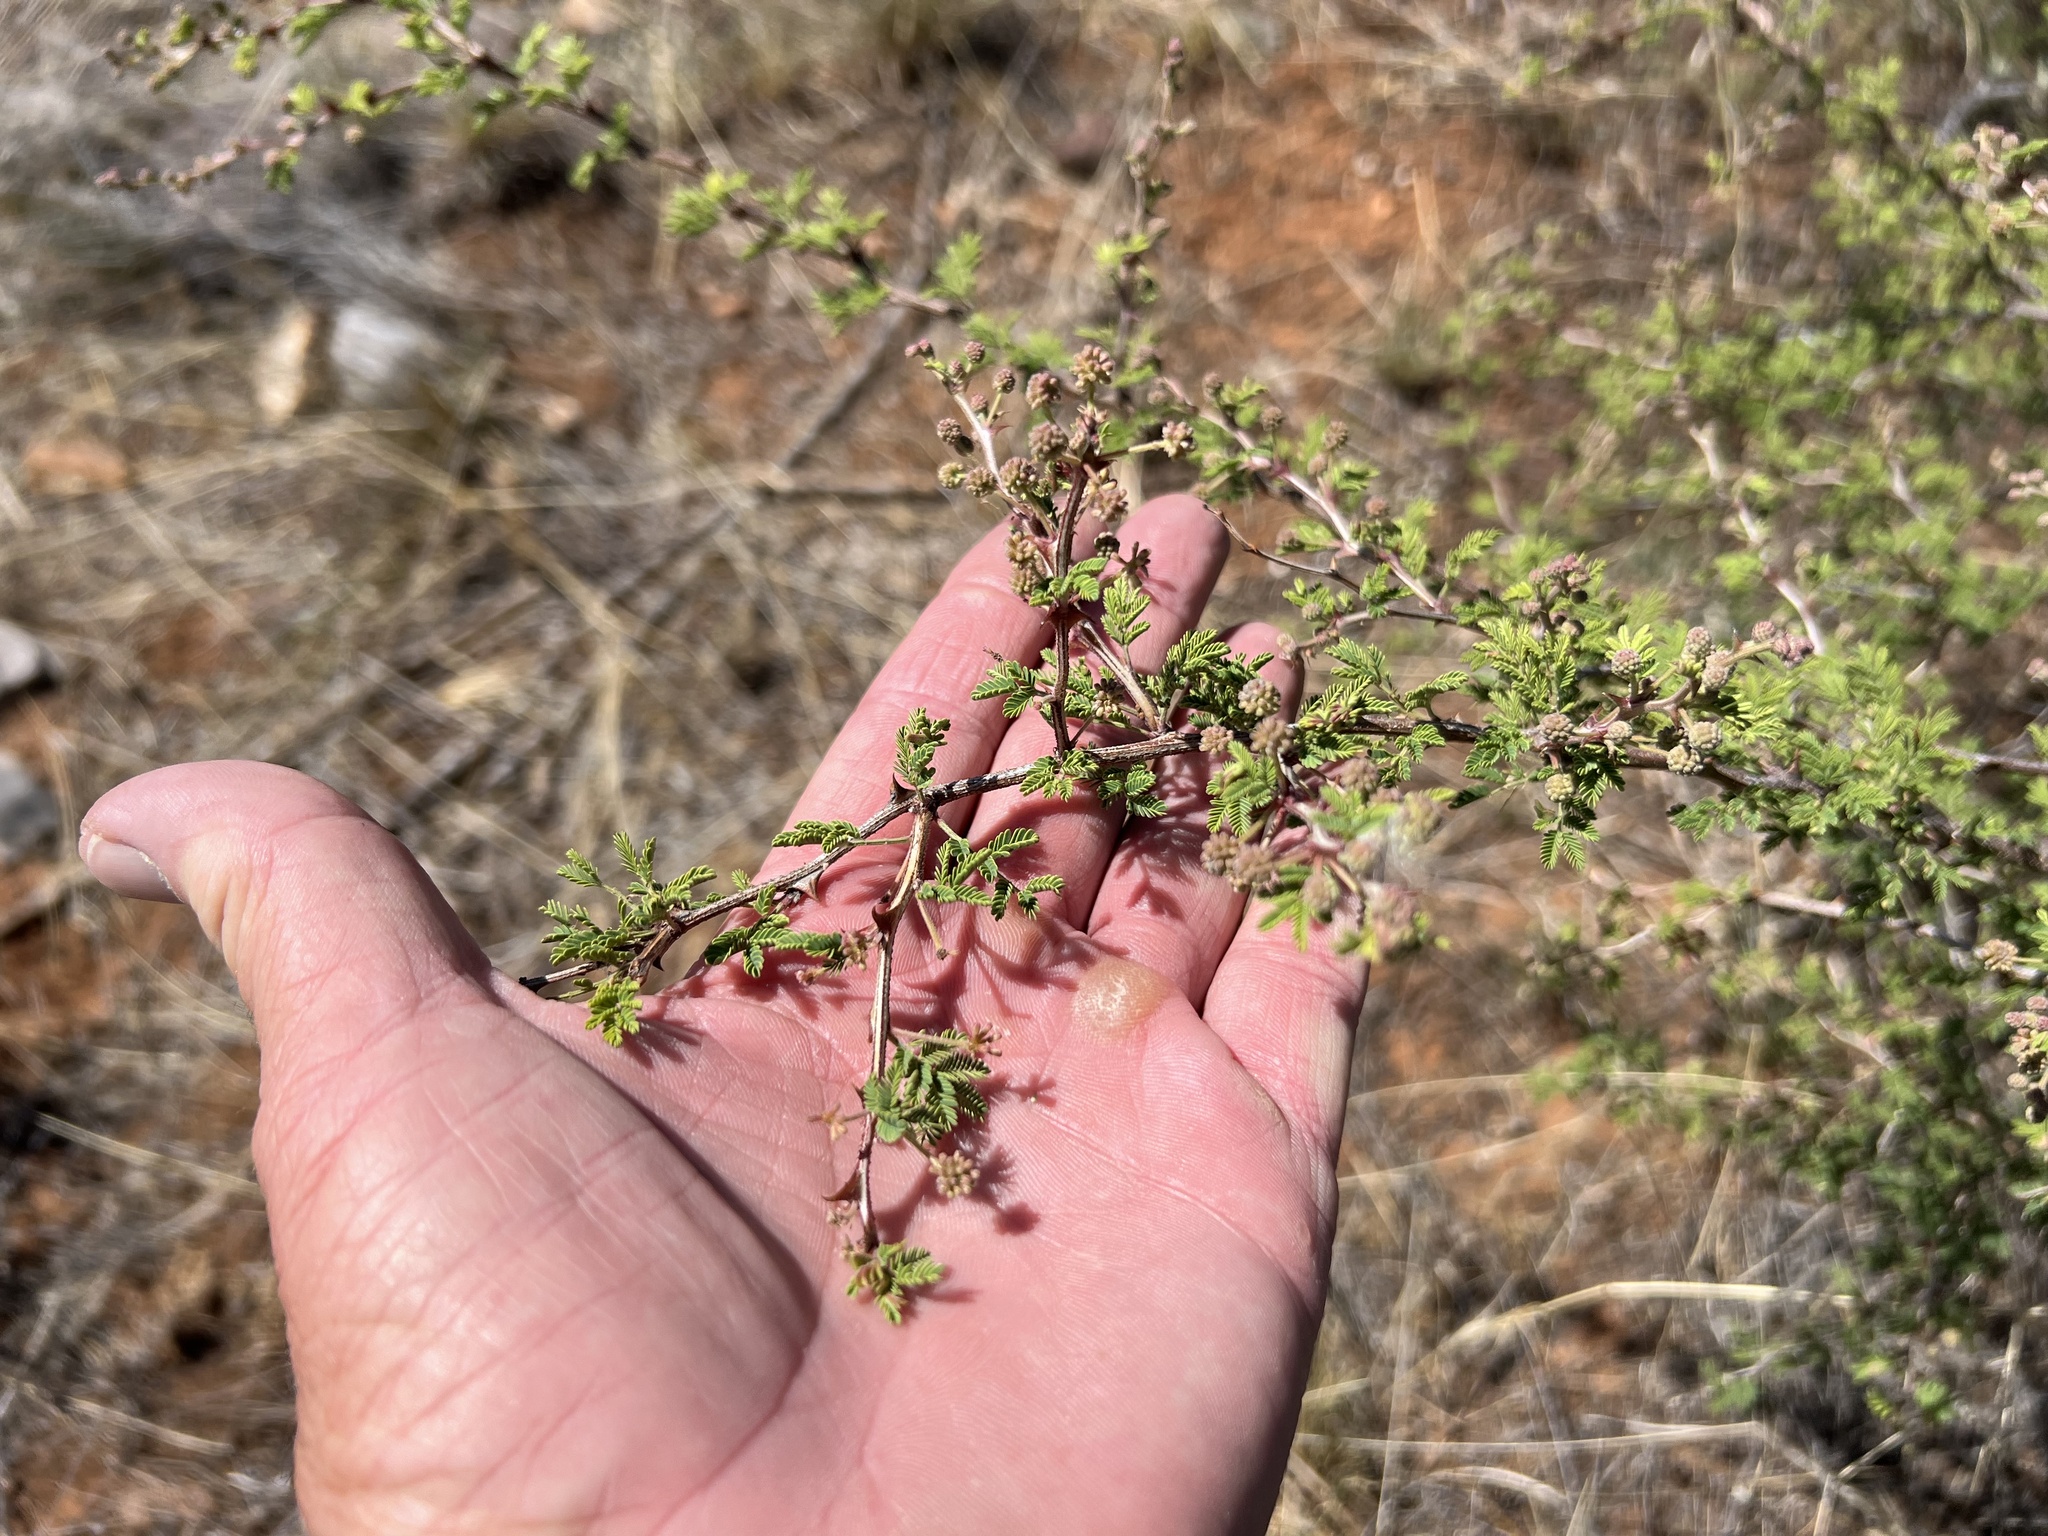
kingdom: Plantae
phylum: Tracheophyta
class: Magnoliopsida
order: Fabales
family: Fabaceae
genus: Mimosa
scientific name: Mimosa biuncifera
